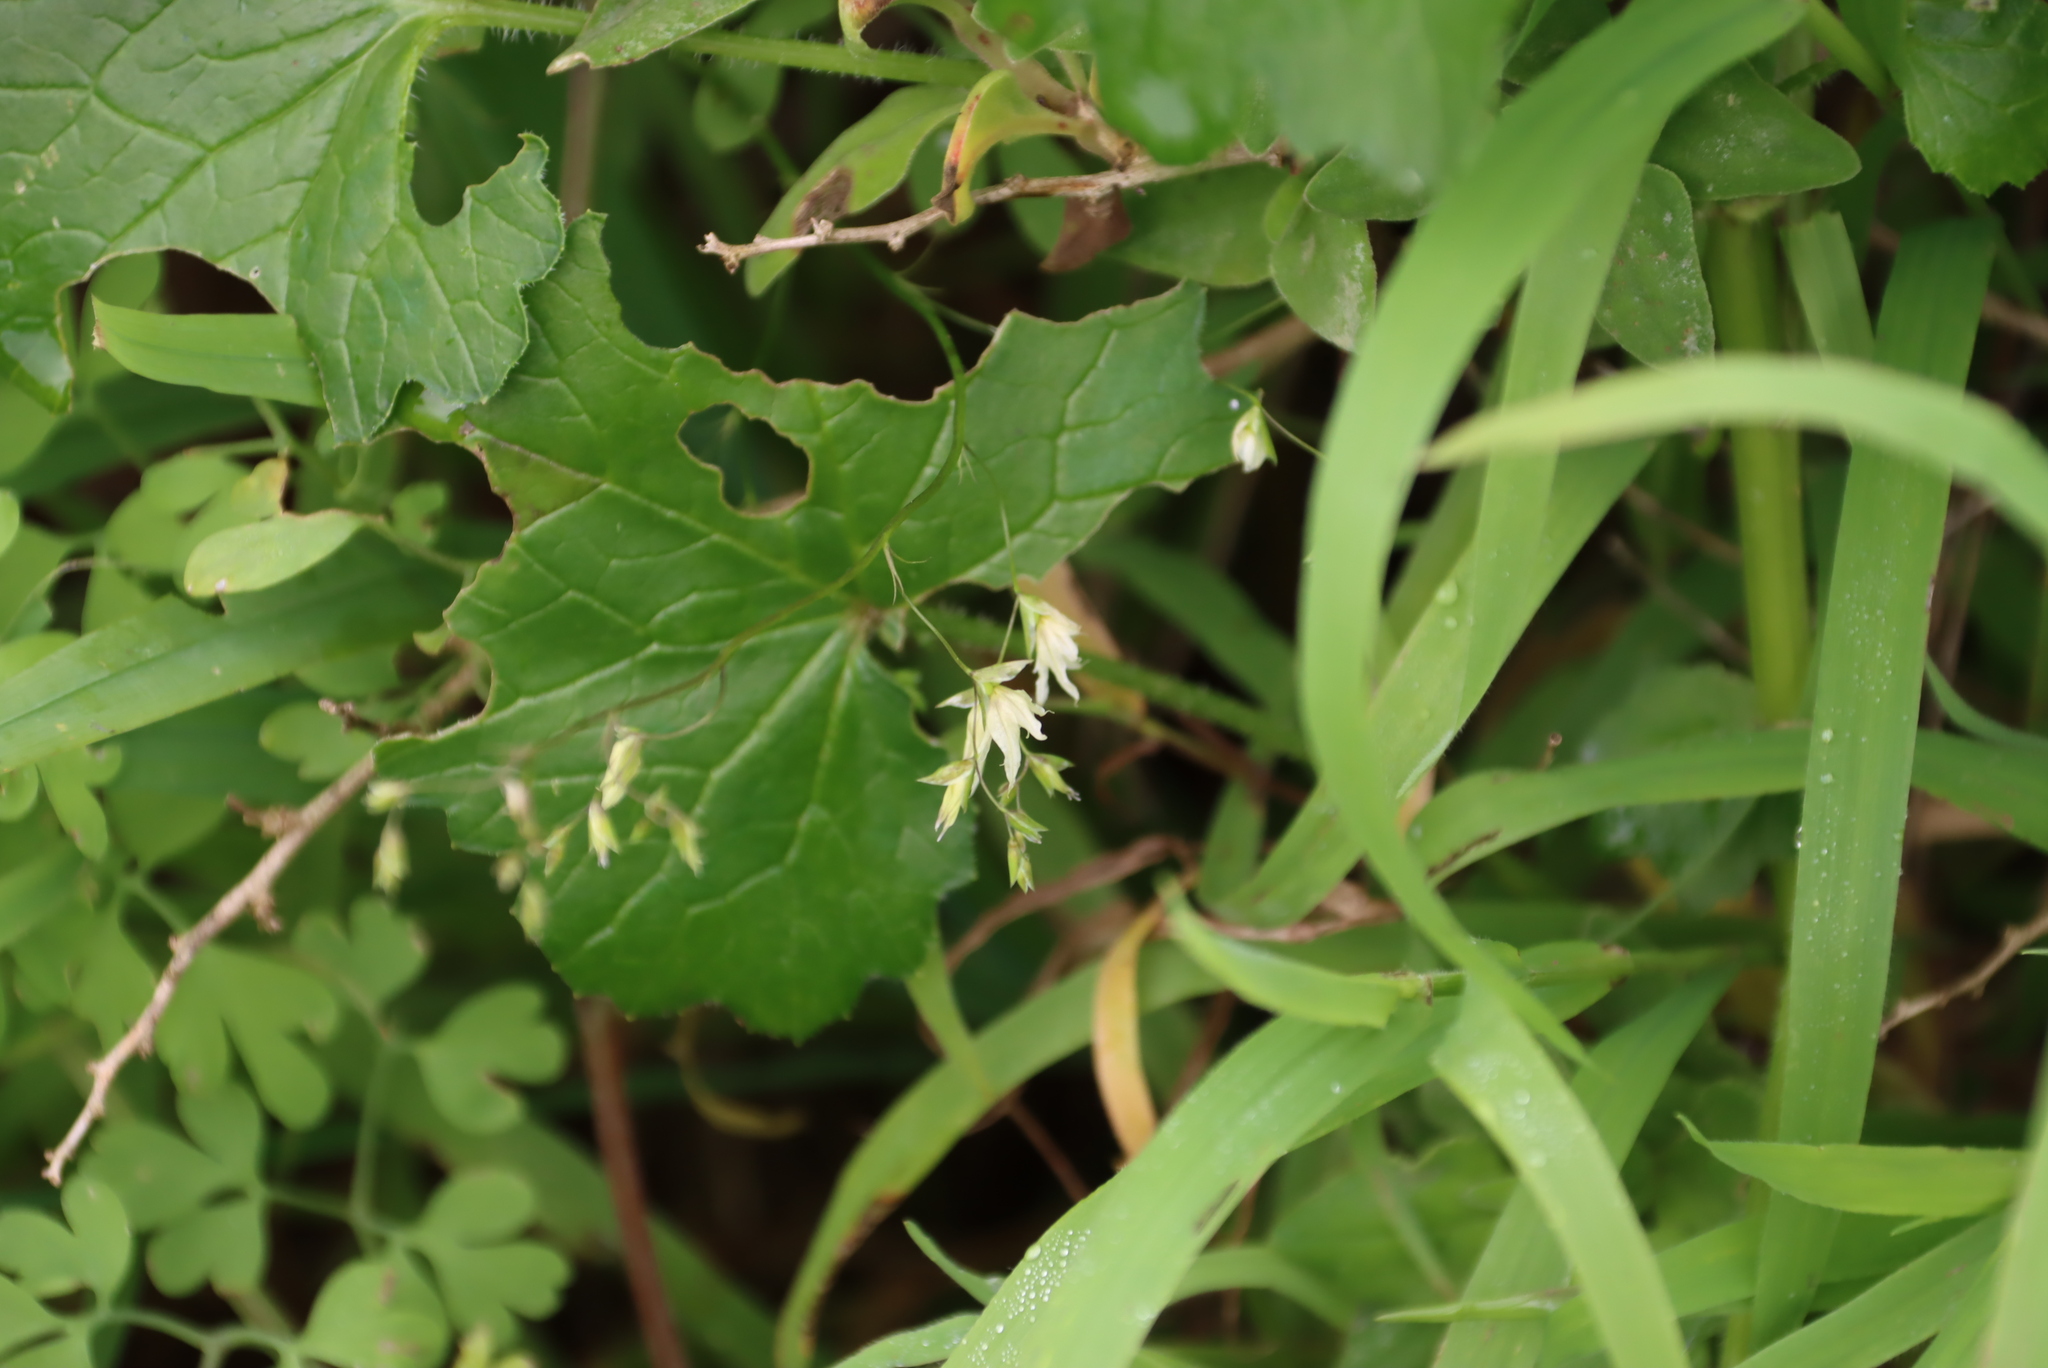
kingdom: Plantae
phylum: Tracheophyta
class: Liliopsida
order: Asparagales
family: Iridaceae
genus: Melasphaerula
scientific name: Melasphaerula graminea
